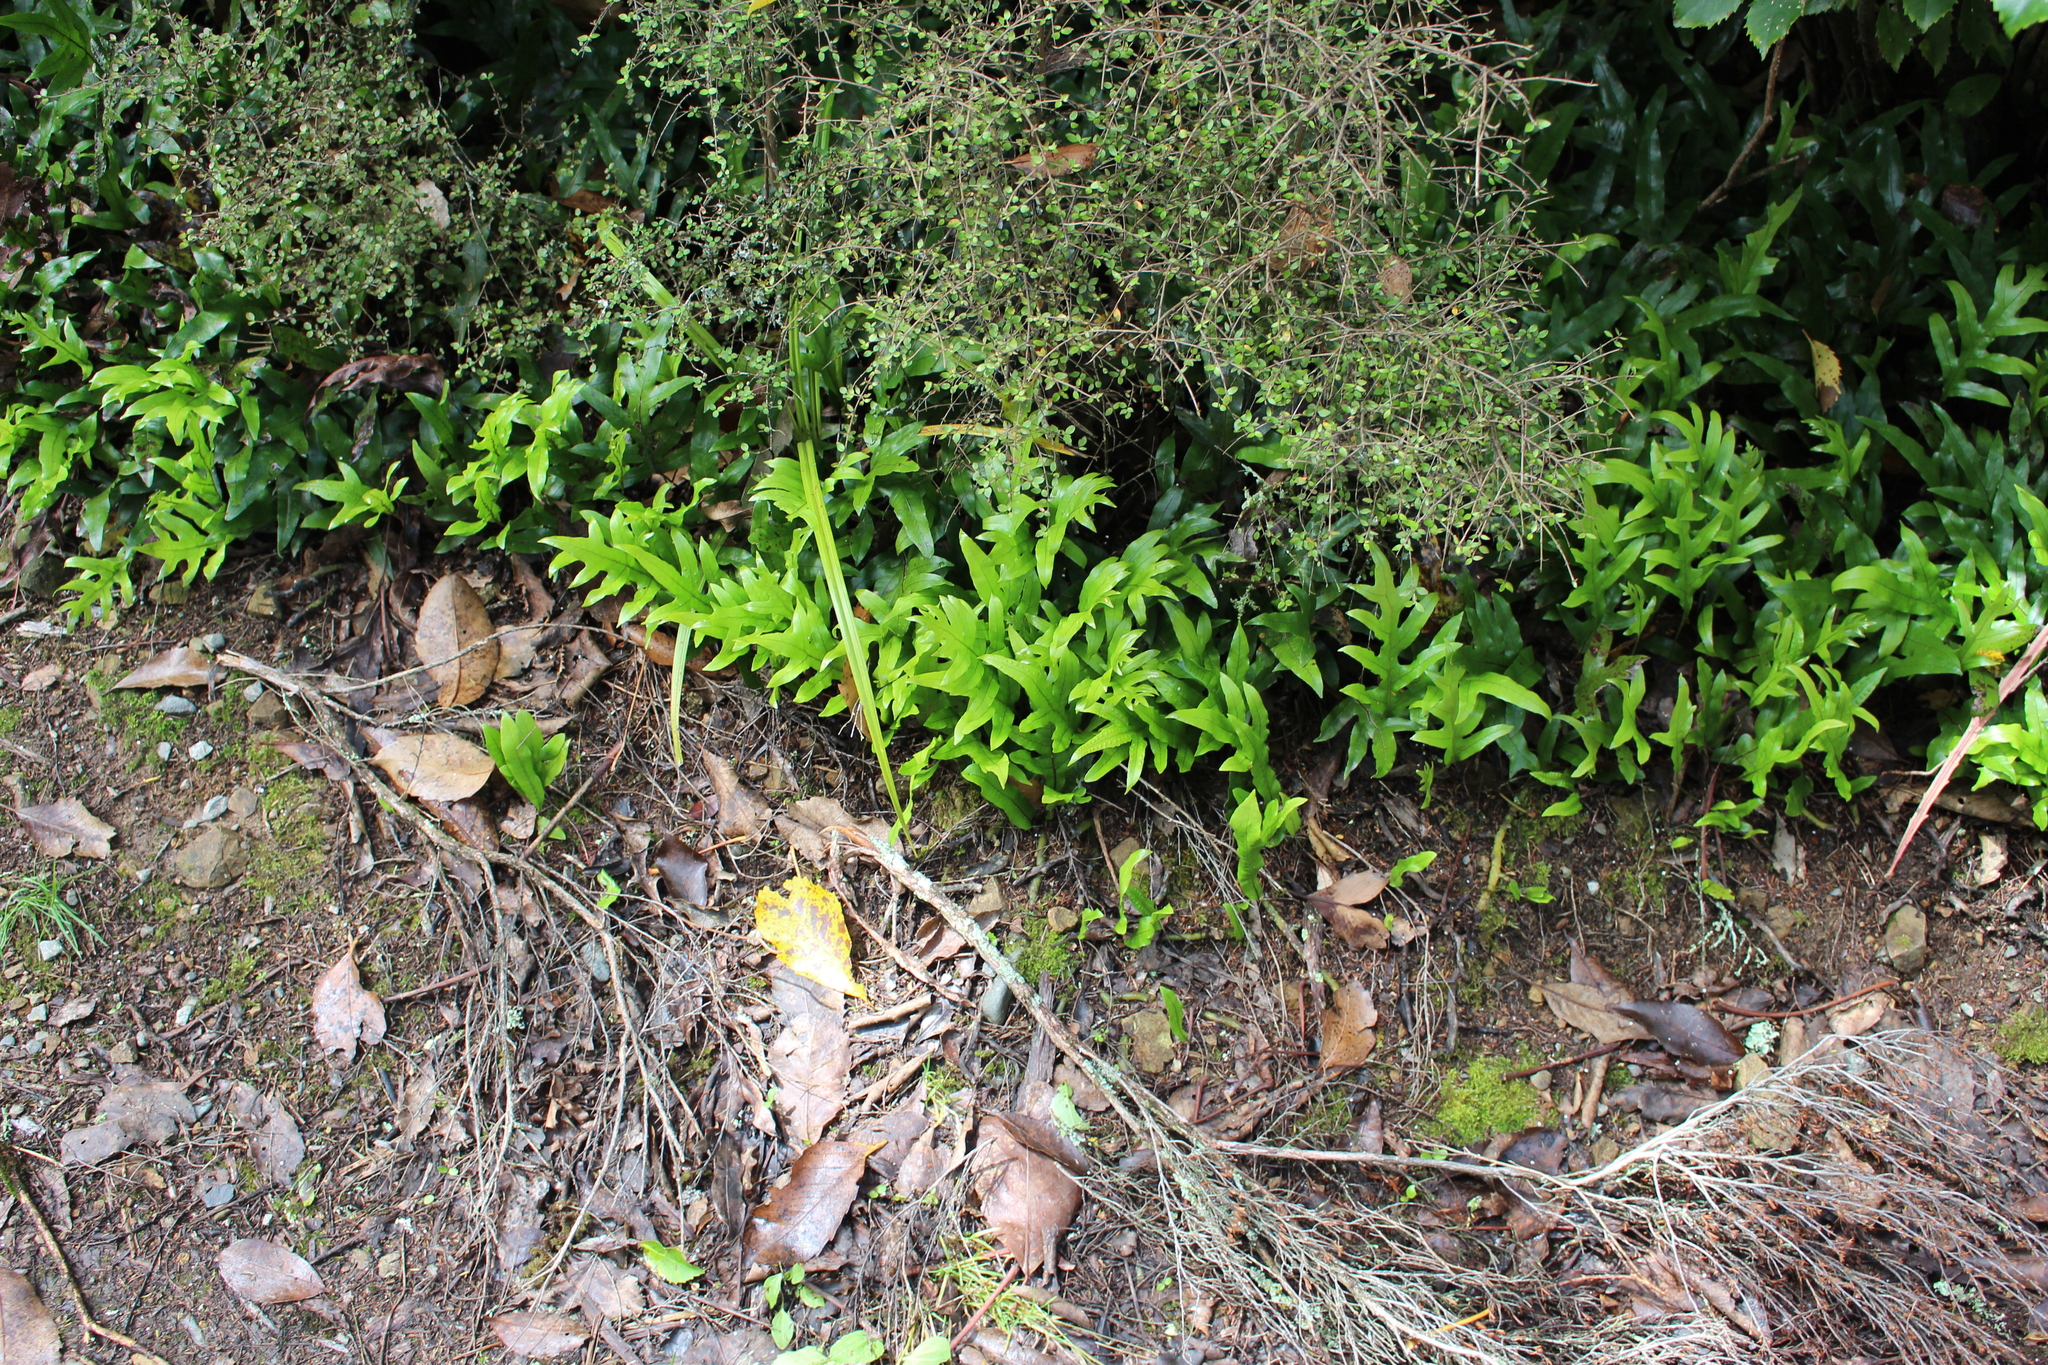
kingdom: Plantae
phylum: Tracheophyta
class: Polypodiopsida
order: Polypodiales
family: Polypodiaceae
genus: Lecanopteris
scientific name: Lecanopteris pustulata
